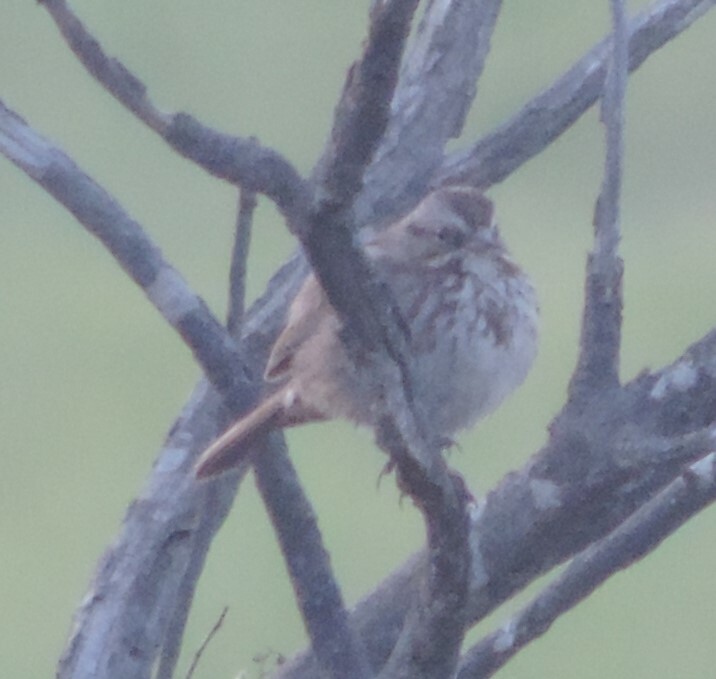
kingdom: Animalia
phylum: Chordata
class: Aves
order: Passeriformes
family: Passerellidae
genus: Melospiza
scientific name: Melospiza melodia
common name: Song sparrow
